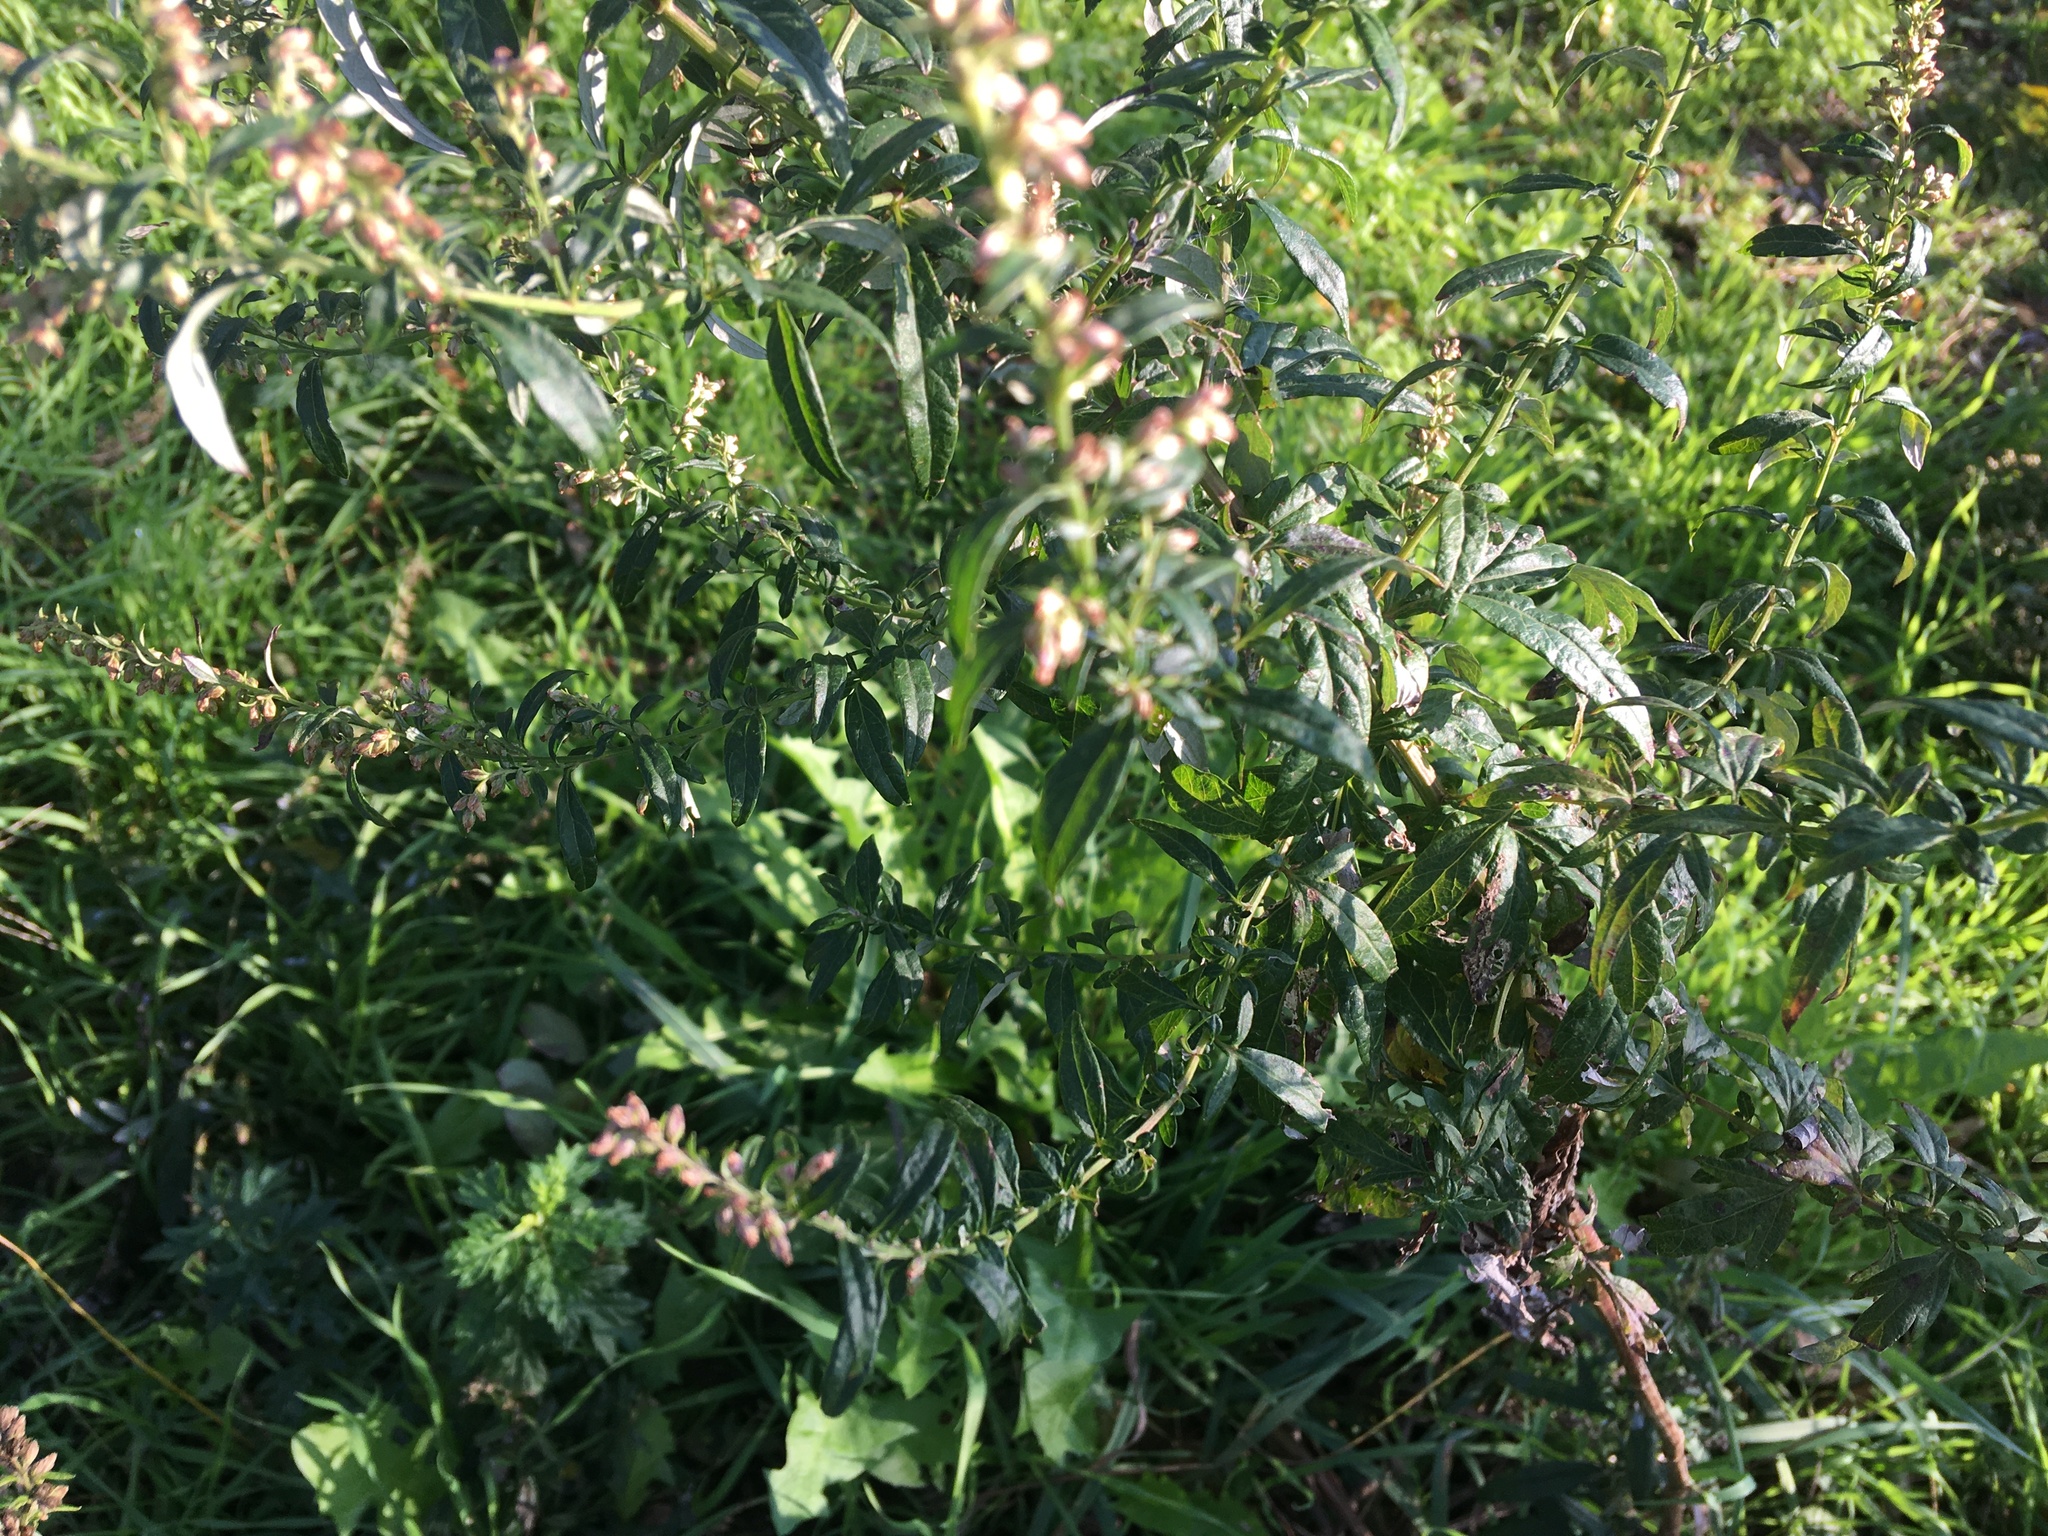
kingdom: Plantae
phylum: Tracheophyta
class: Magnoliopsida
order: Asterales
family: Asteraceae
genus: Artemisia
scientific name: Artemisia vulgaris
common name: Mugwort
